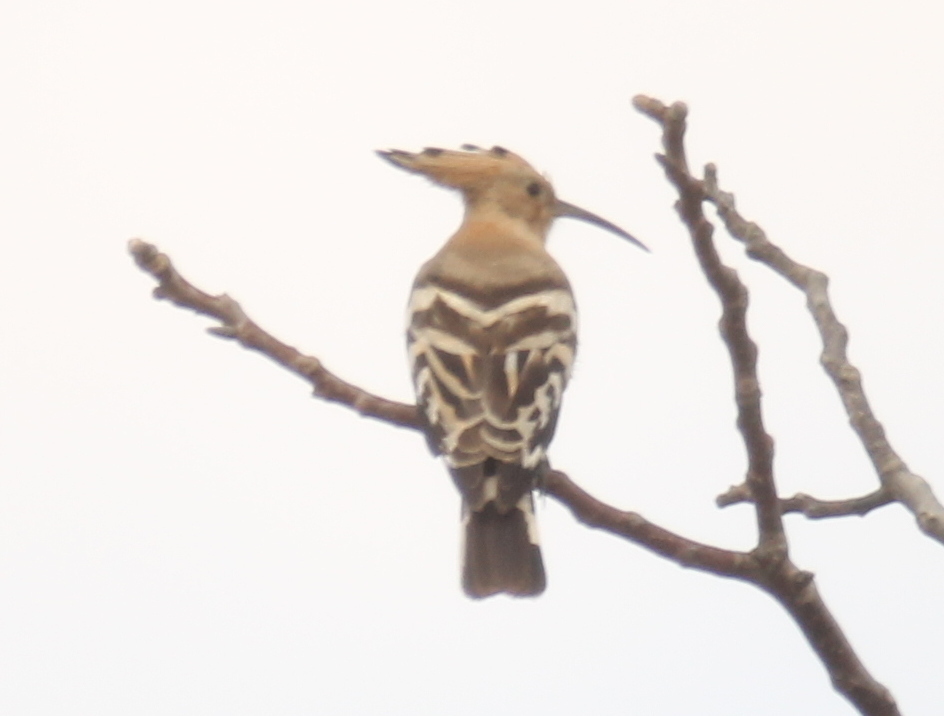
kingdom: Animalia
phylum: Chordata
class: Aves
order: Bucerotiformes
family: Upupidae
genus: Upupa
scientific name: Upupa epops
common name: Eurasian hoopoe
